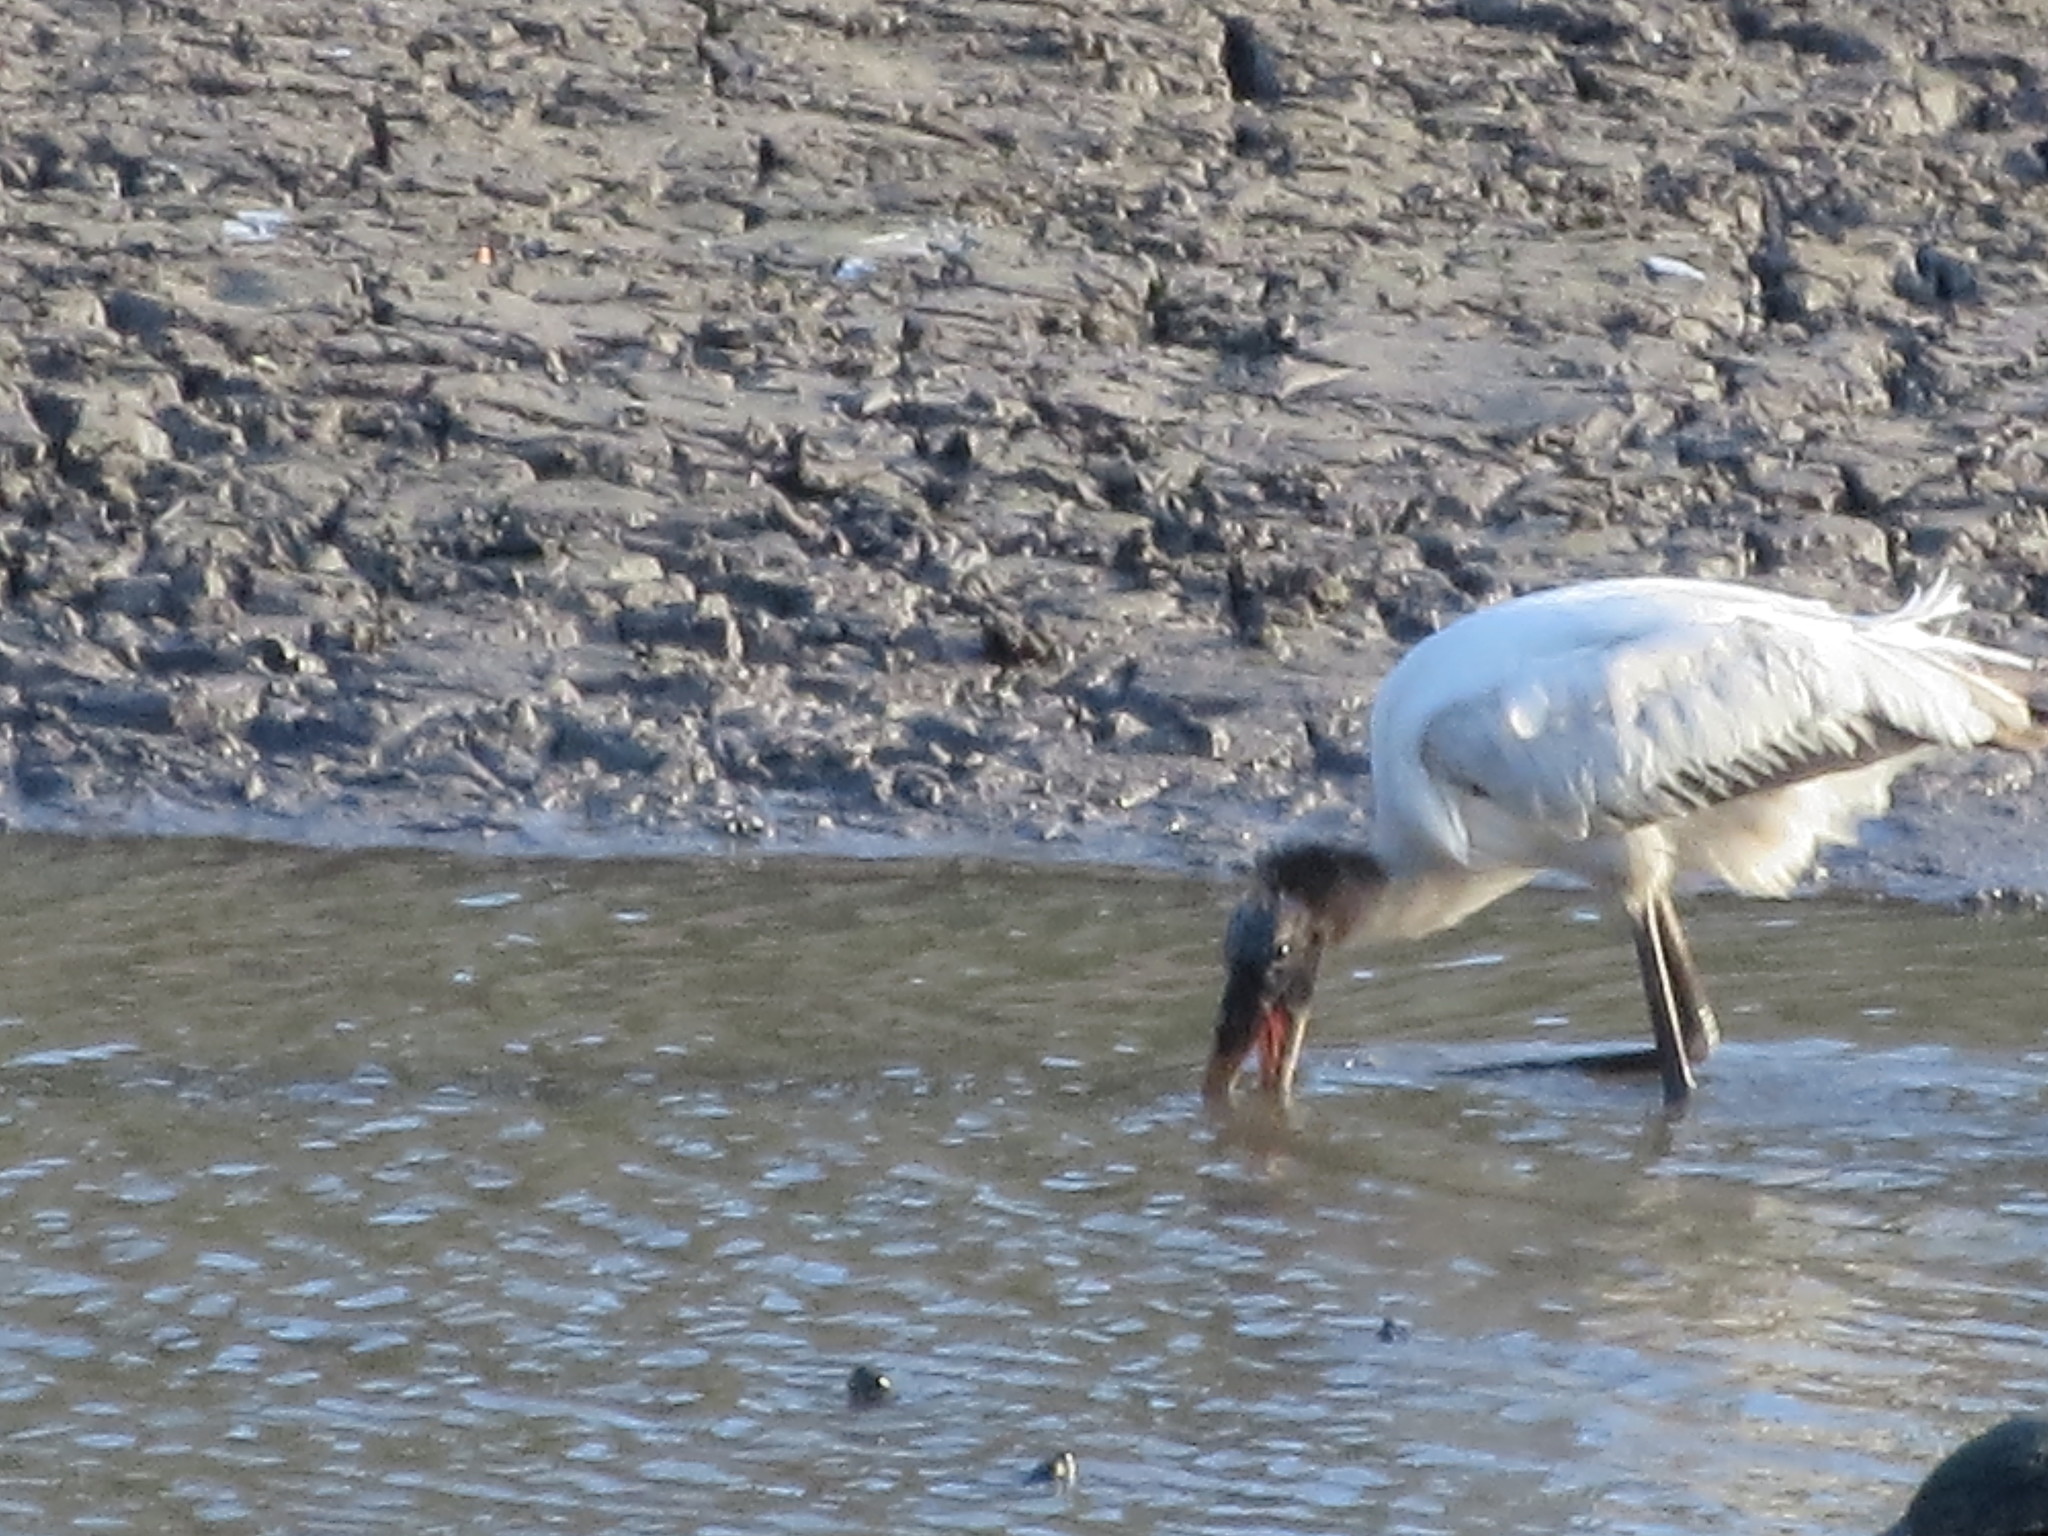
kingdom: Animalia
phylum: Chordata
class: Aves
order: Ciconiiformes
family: Ciconiidae
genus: Mycteria
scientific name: Mycteria americana
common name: Wood stork
